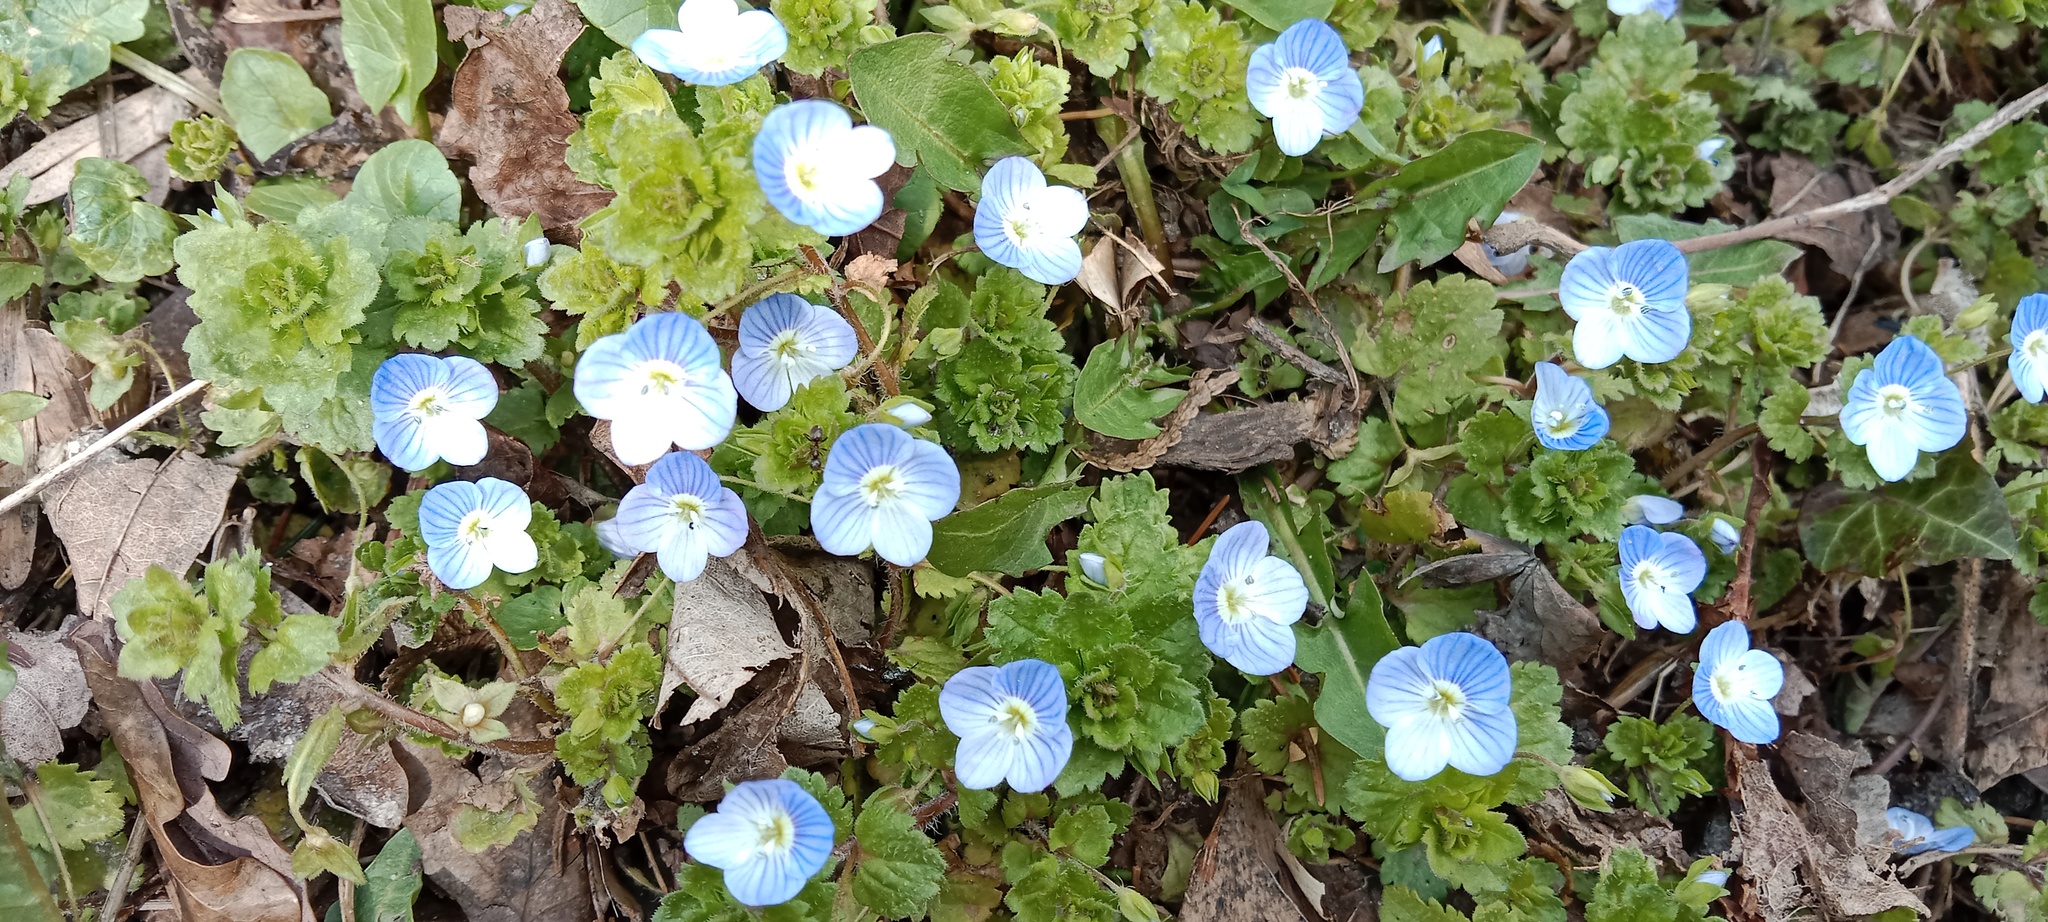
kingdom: Plantae
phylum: Tracheophyta
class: Magnoliopsida
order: Lamiales
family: Plantaginaceae
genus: Veronica
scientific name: Veronica persica
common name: Common field-speedwell
